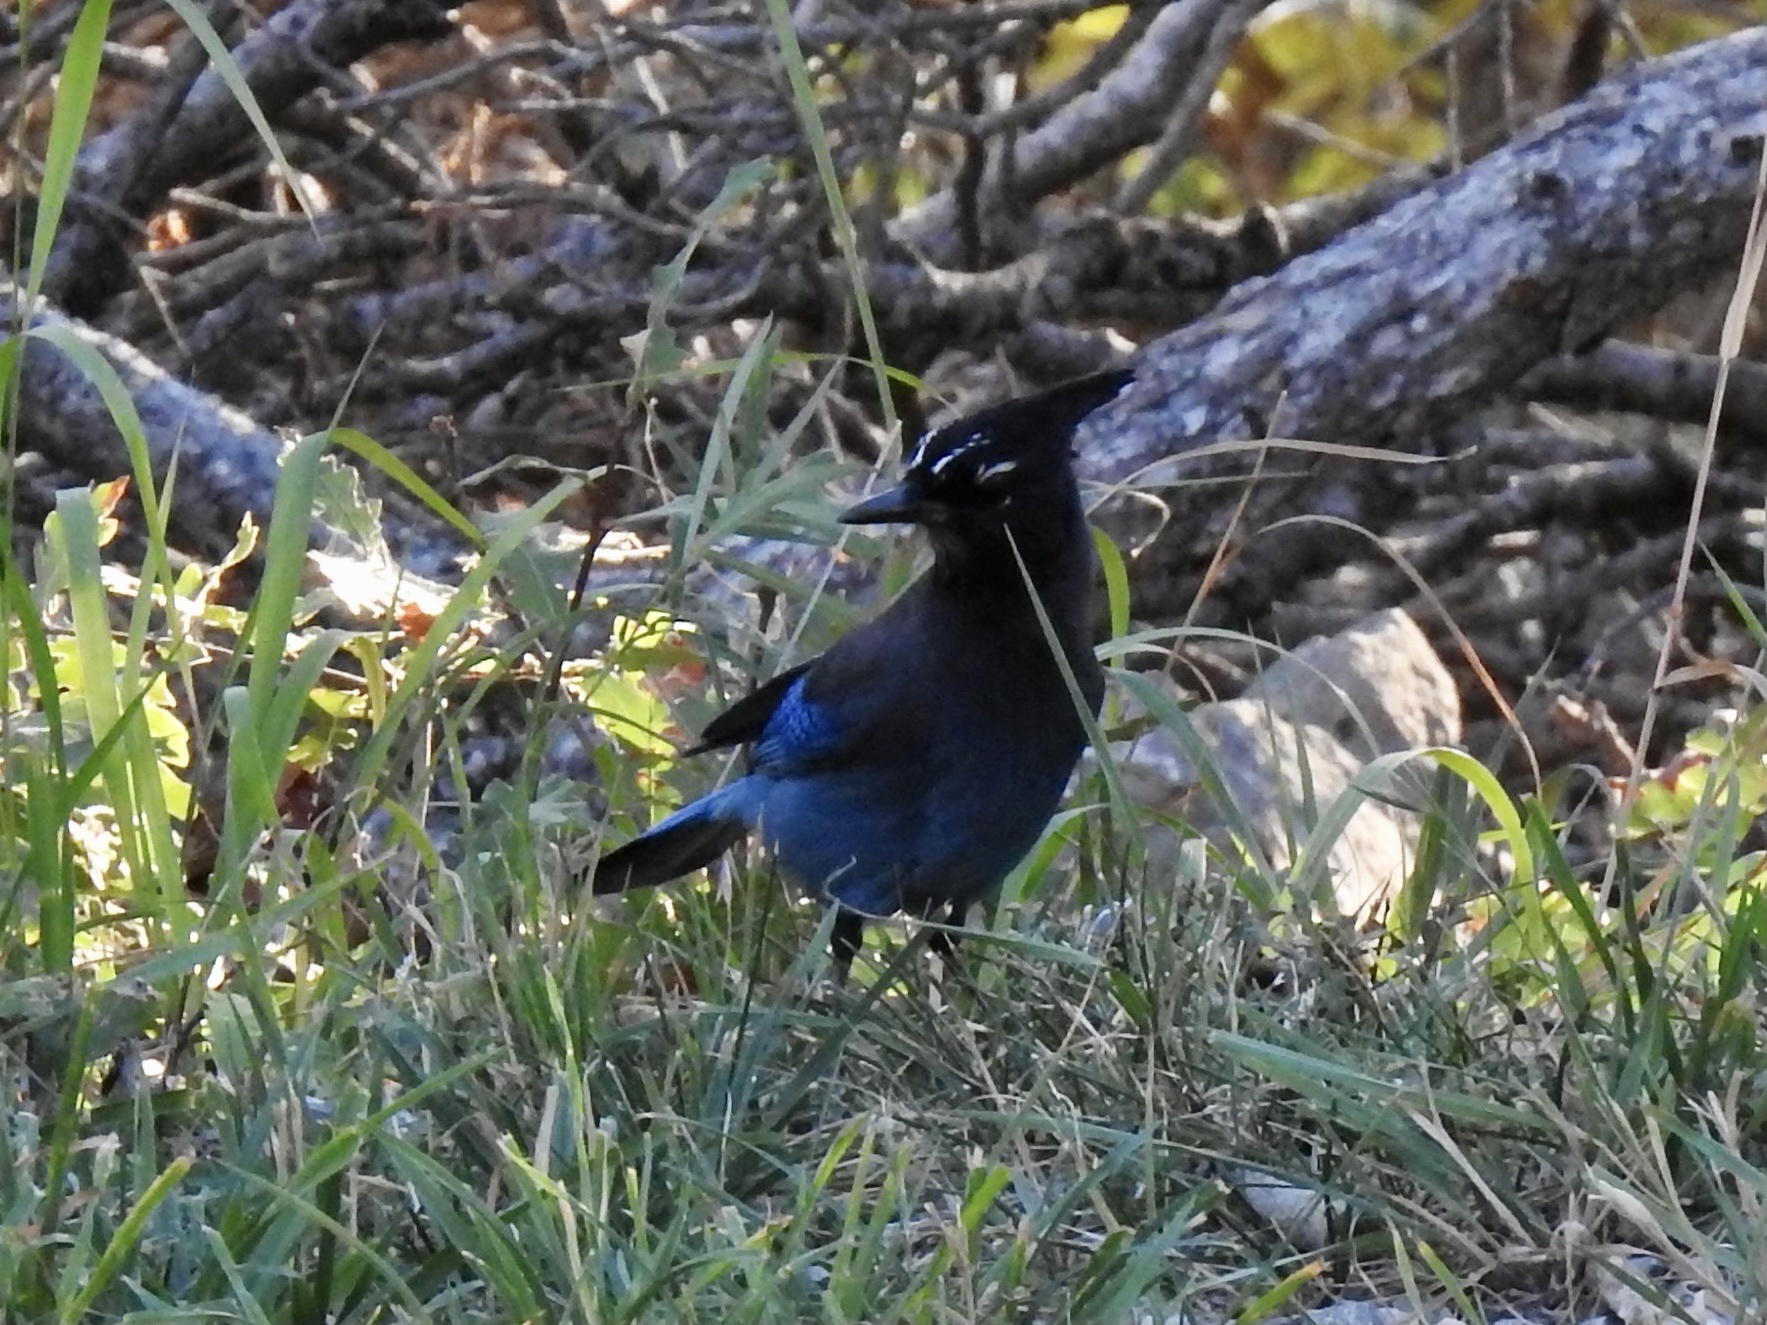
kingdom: Animalia
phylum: Chordata
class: Aves
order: Passeriformes
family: Corvidae
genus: Cyanocitta
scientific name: Cyanocitta stelleri
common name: Steller's jay
